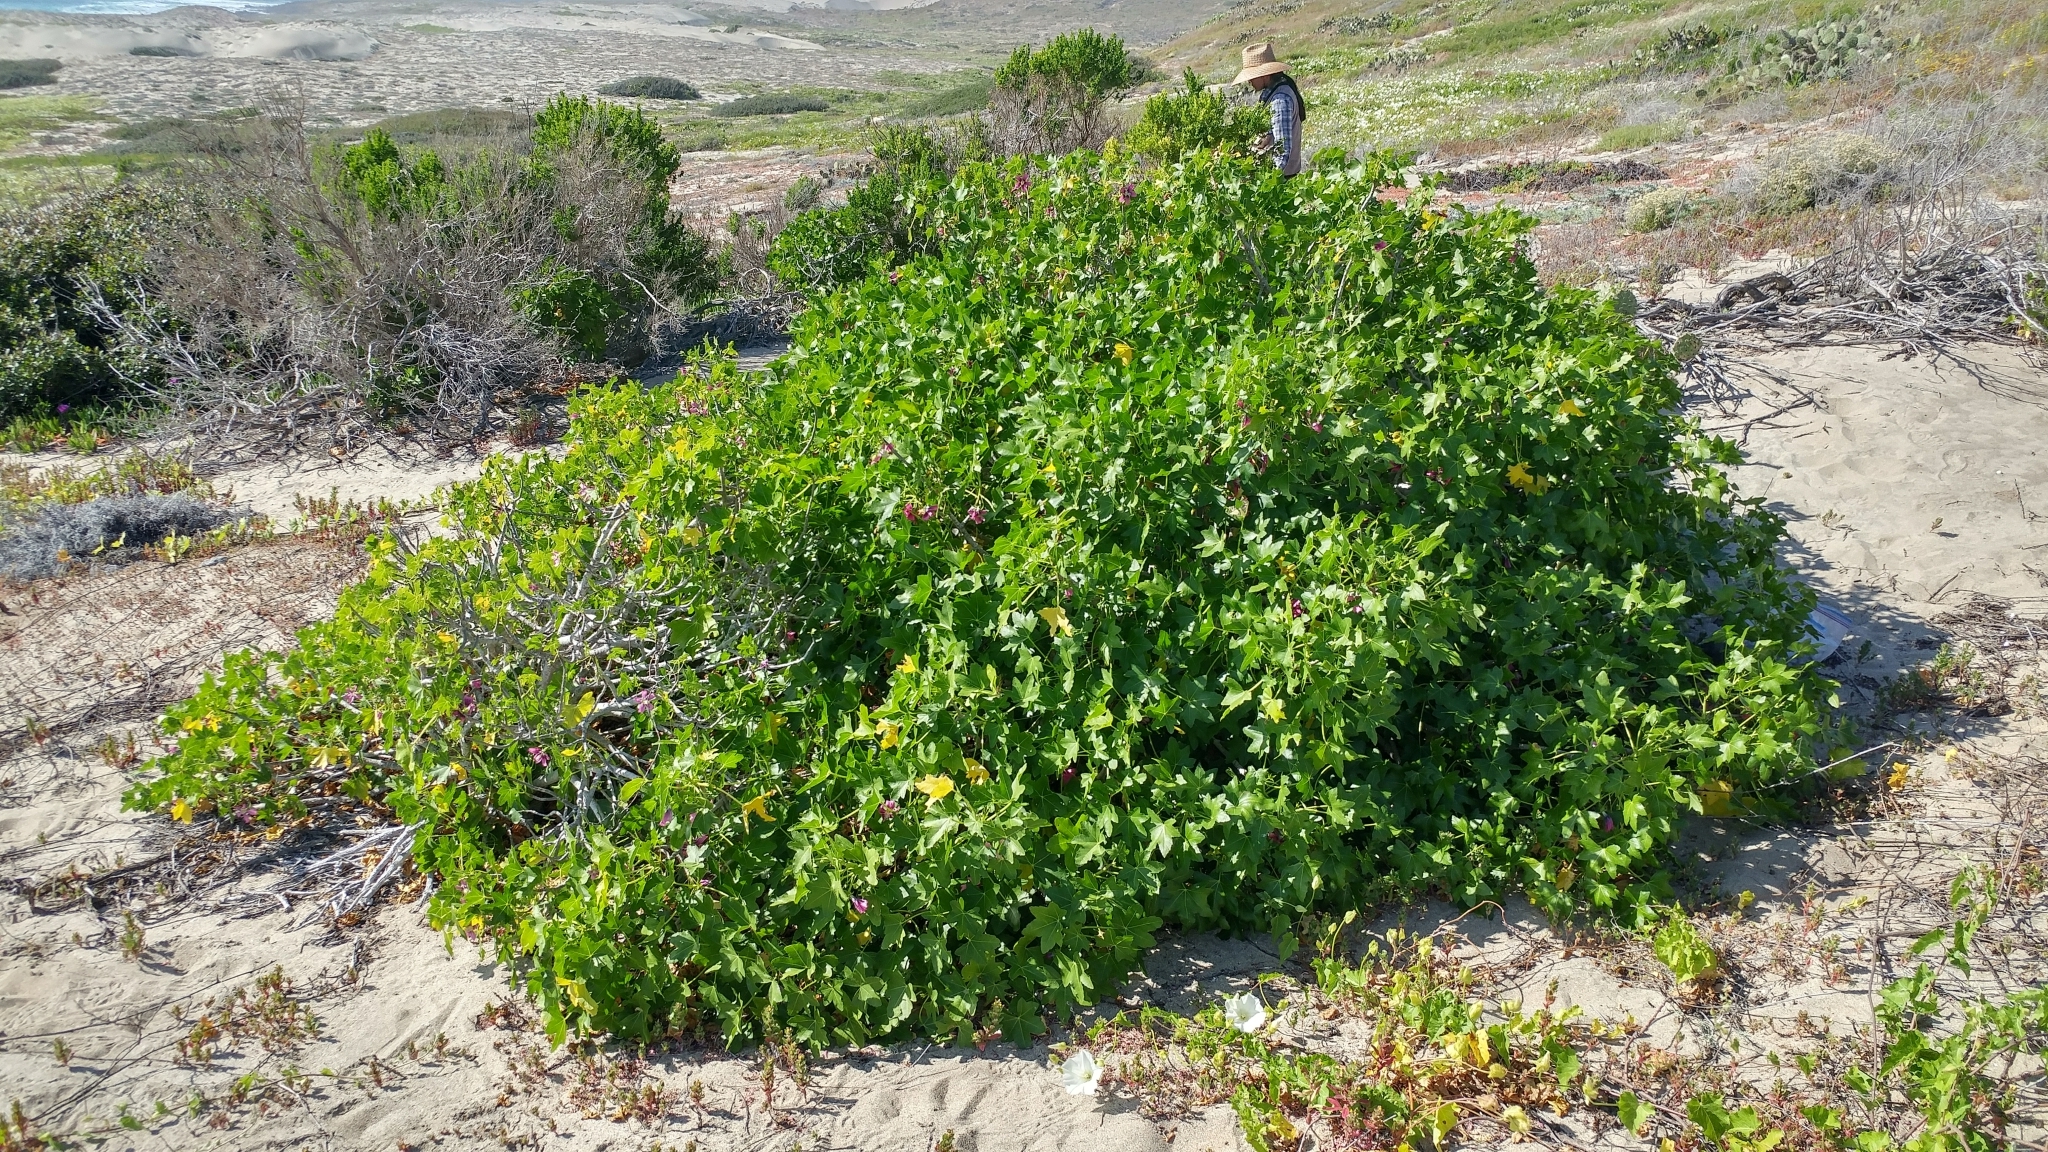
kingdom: Plantae
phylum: Tracheophyta
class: Magnoliopsida
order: Malvales
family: Malvaceae
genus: Malva
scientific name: Malva assurgentiflora
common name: Island mallow
